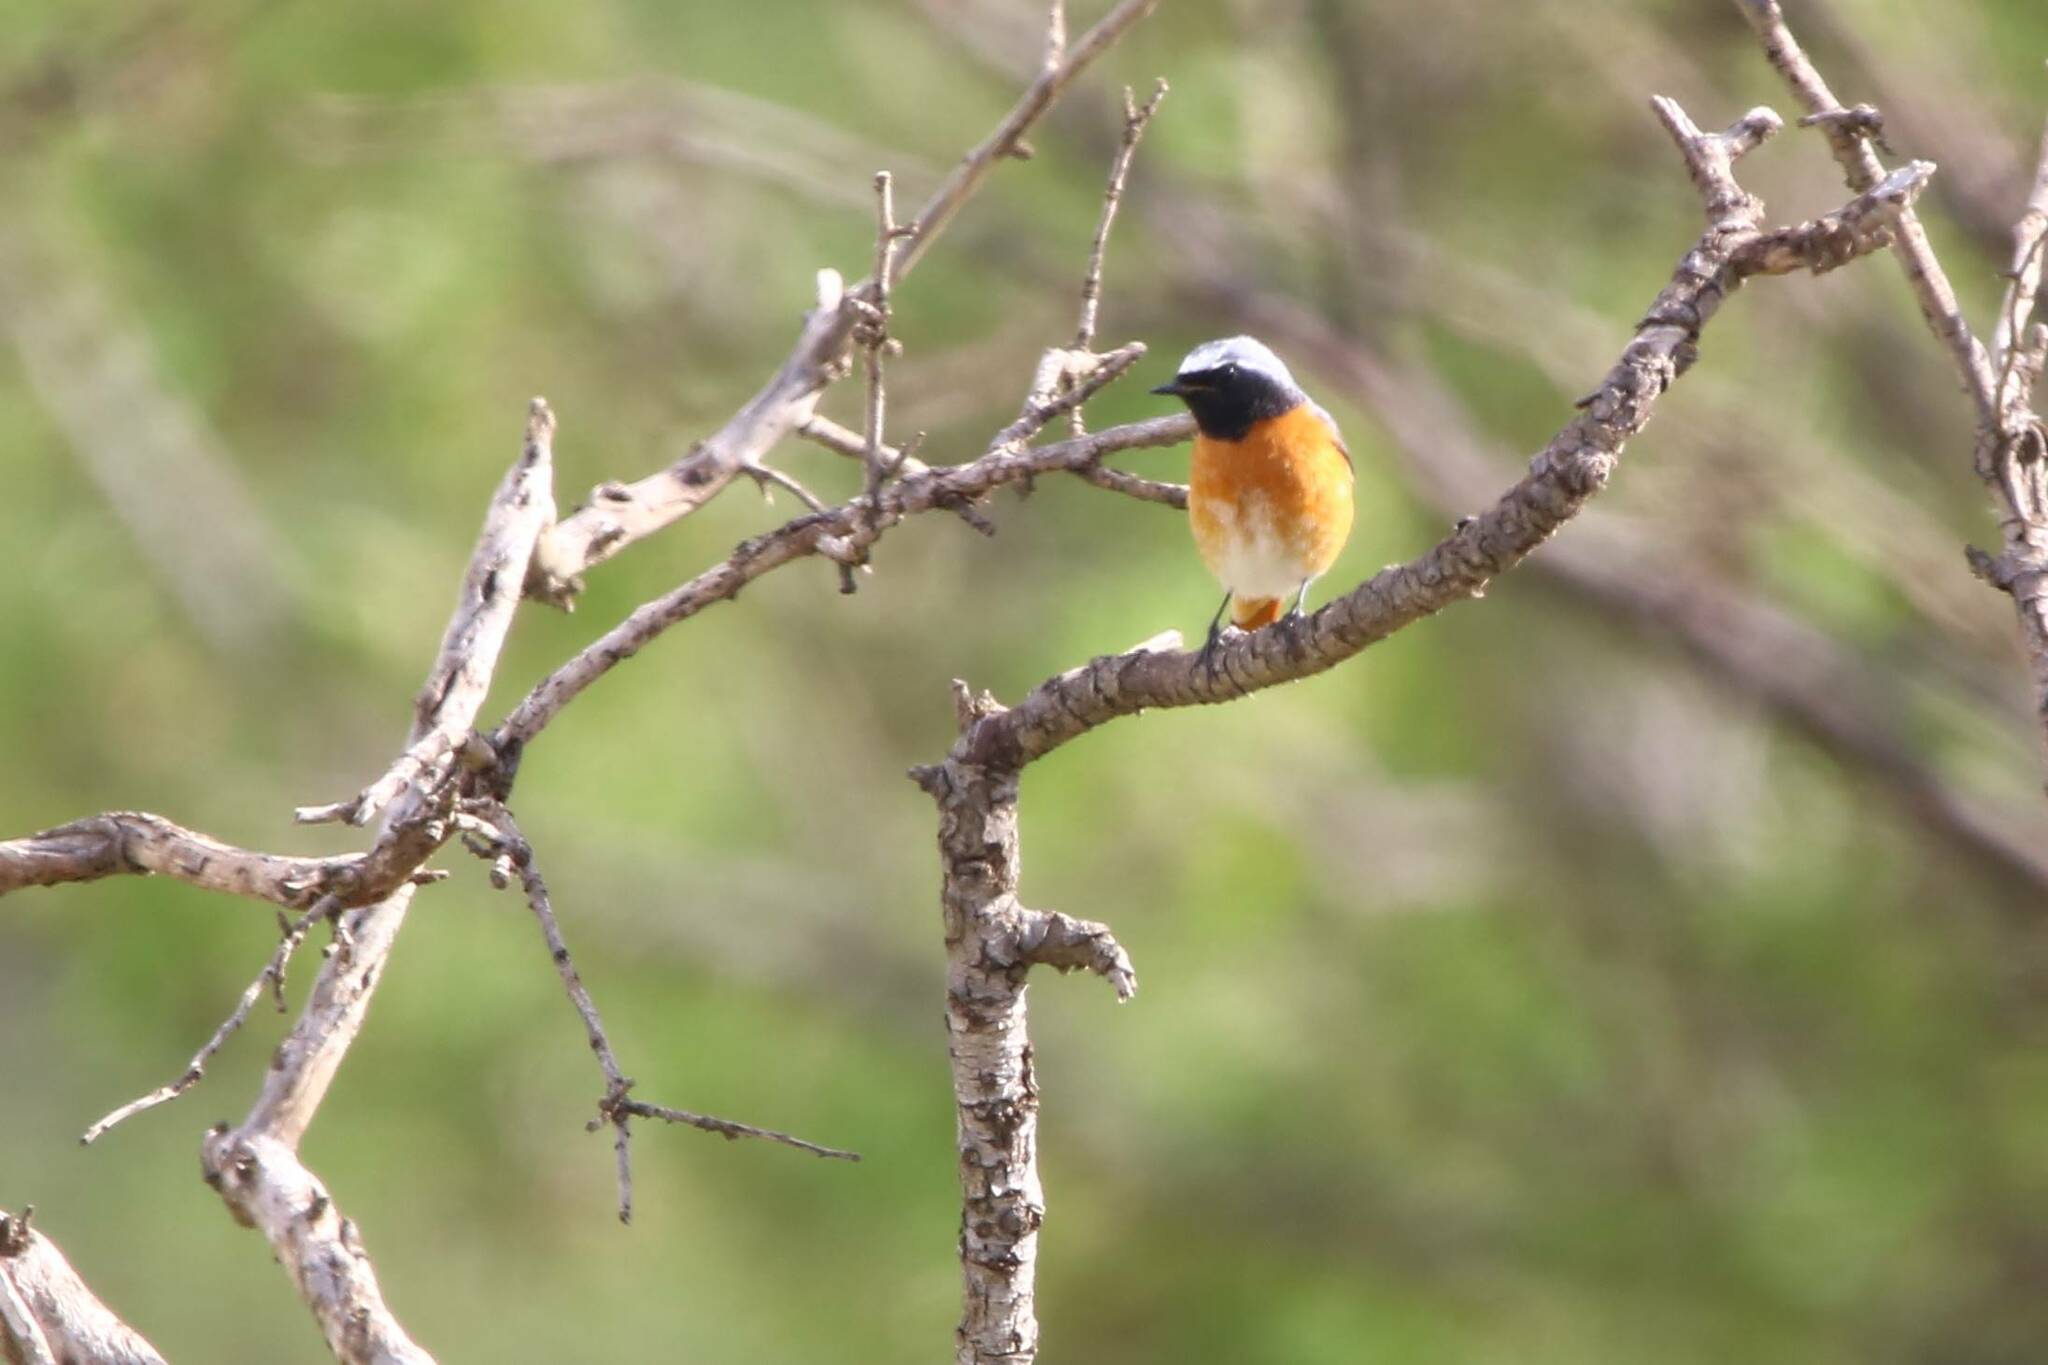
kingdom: Animalia
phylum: Chordata
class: Aves
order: Passeriformes
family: Muscicapidae
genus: Phoenicurus
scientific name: Phoenicurus phoenicurus
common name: Common redstart
